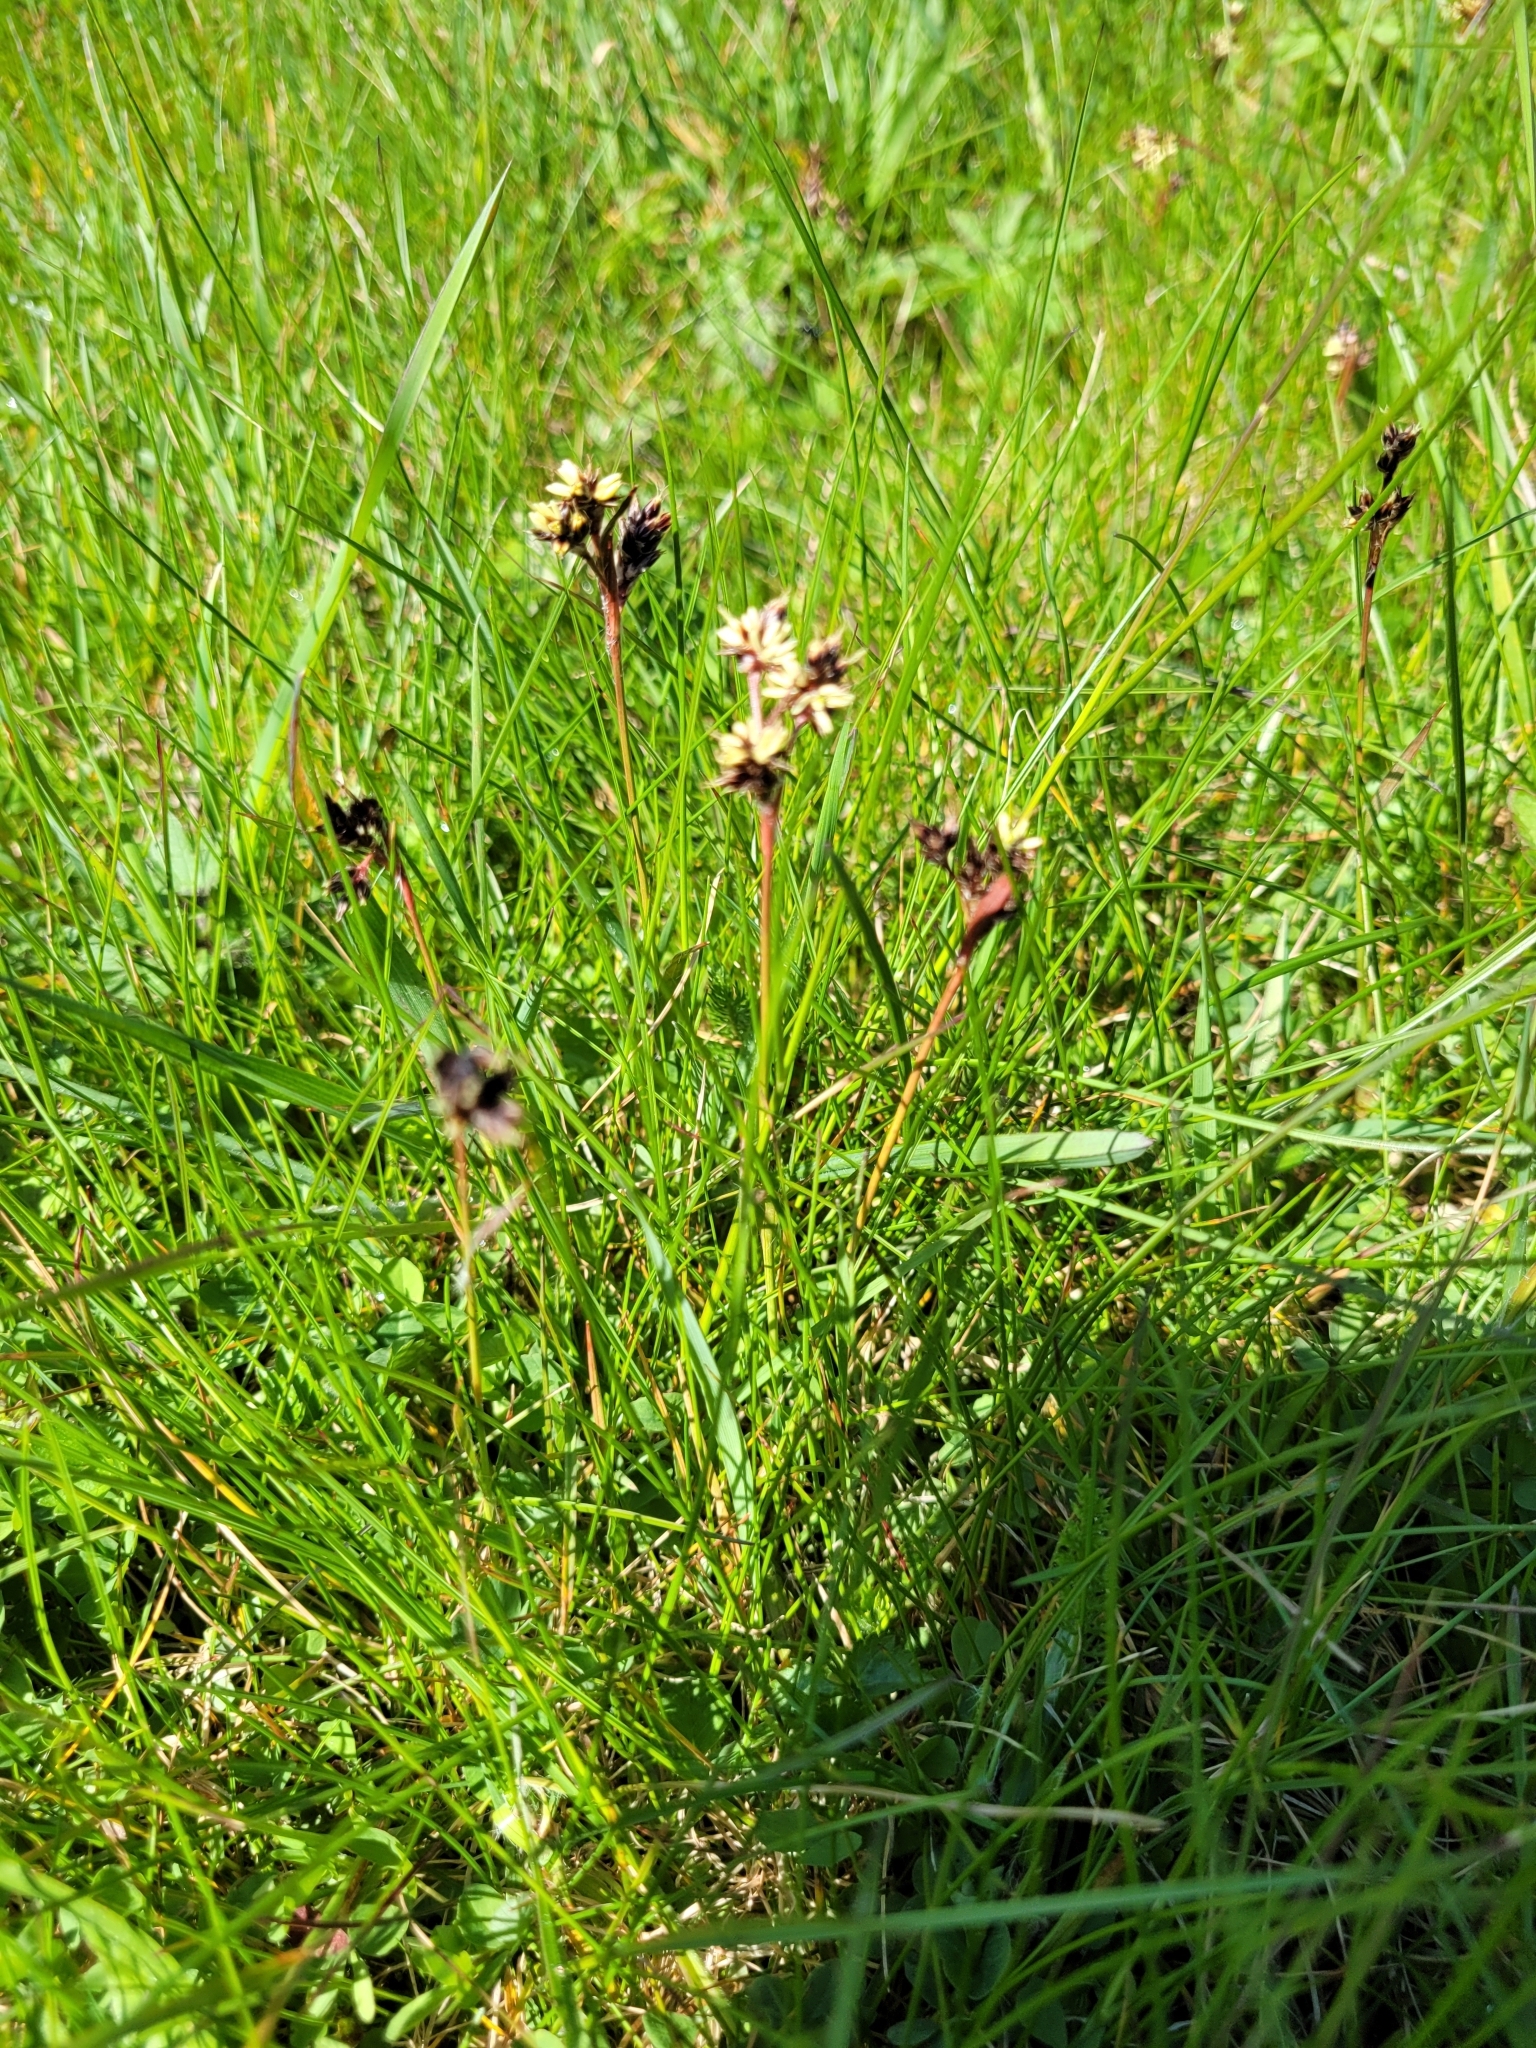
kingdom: Plantae
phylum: Tracheophyta
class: Liliopsida
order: Poales
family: Juncaceae
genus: Luzula
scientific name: Luzula campestris
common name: Field wood-rush
